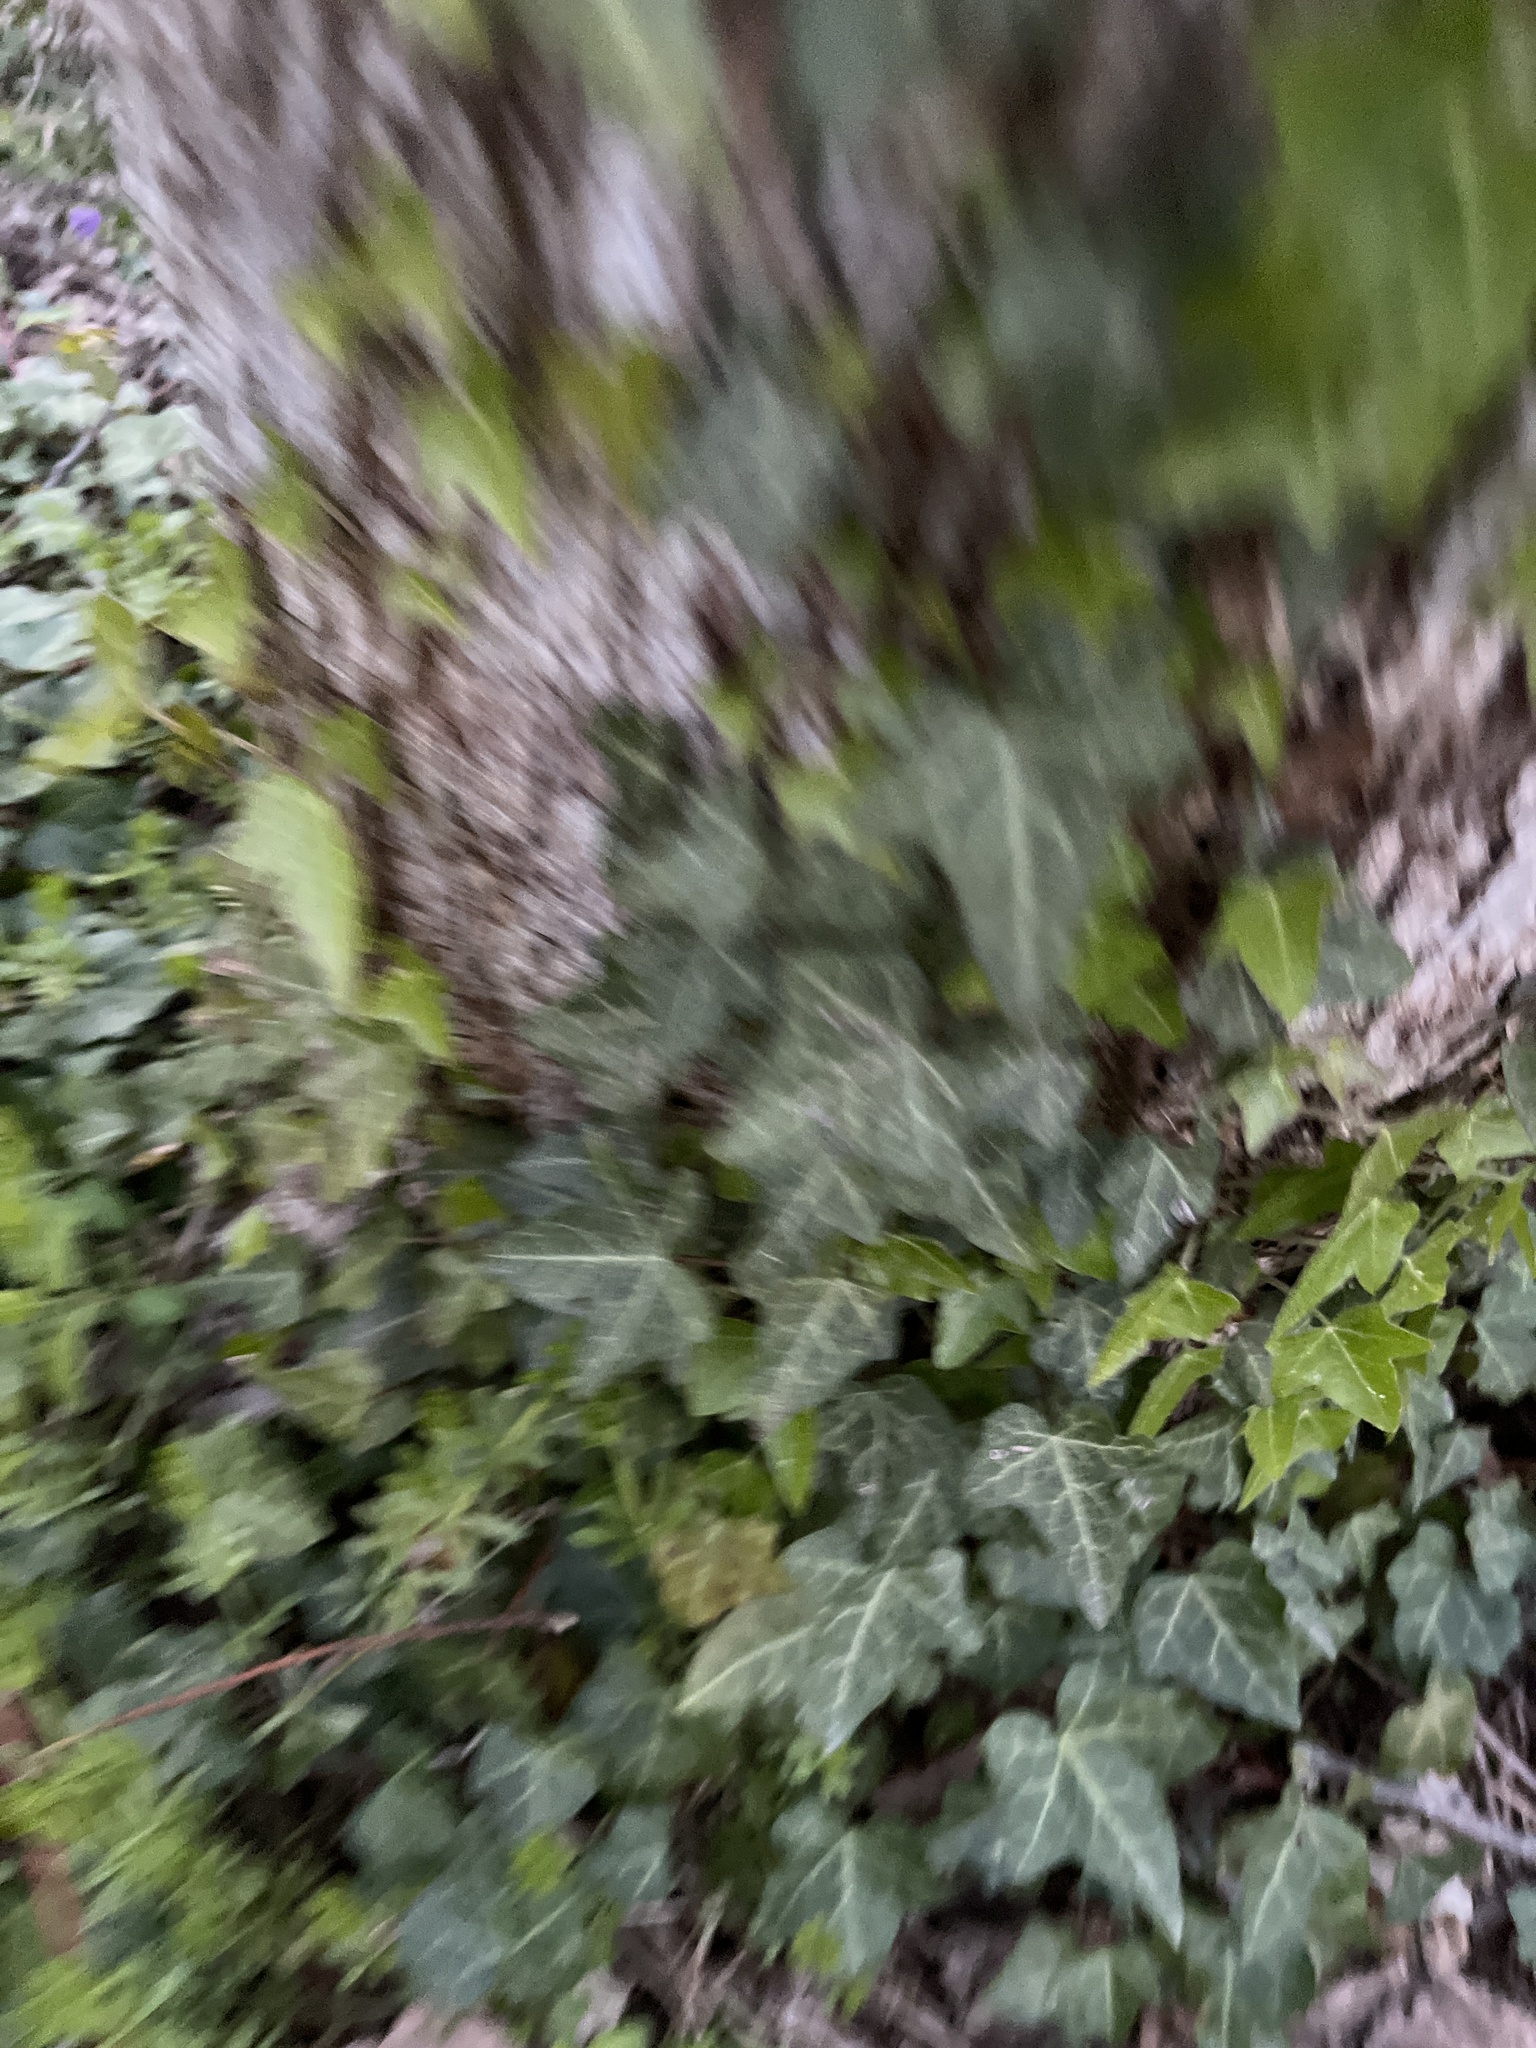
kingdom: Plantae
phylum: Tracheophyta
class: Magnoliopsida
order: Apiales
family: Araliaceae
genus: Hedera
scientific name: Hedera helix
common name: Ivy
